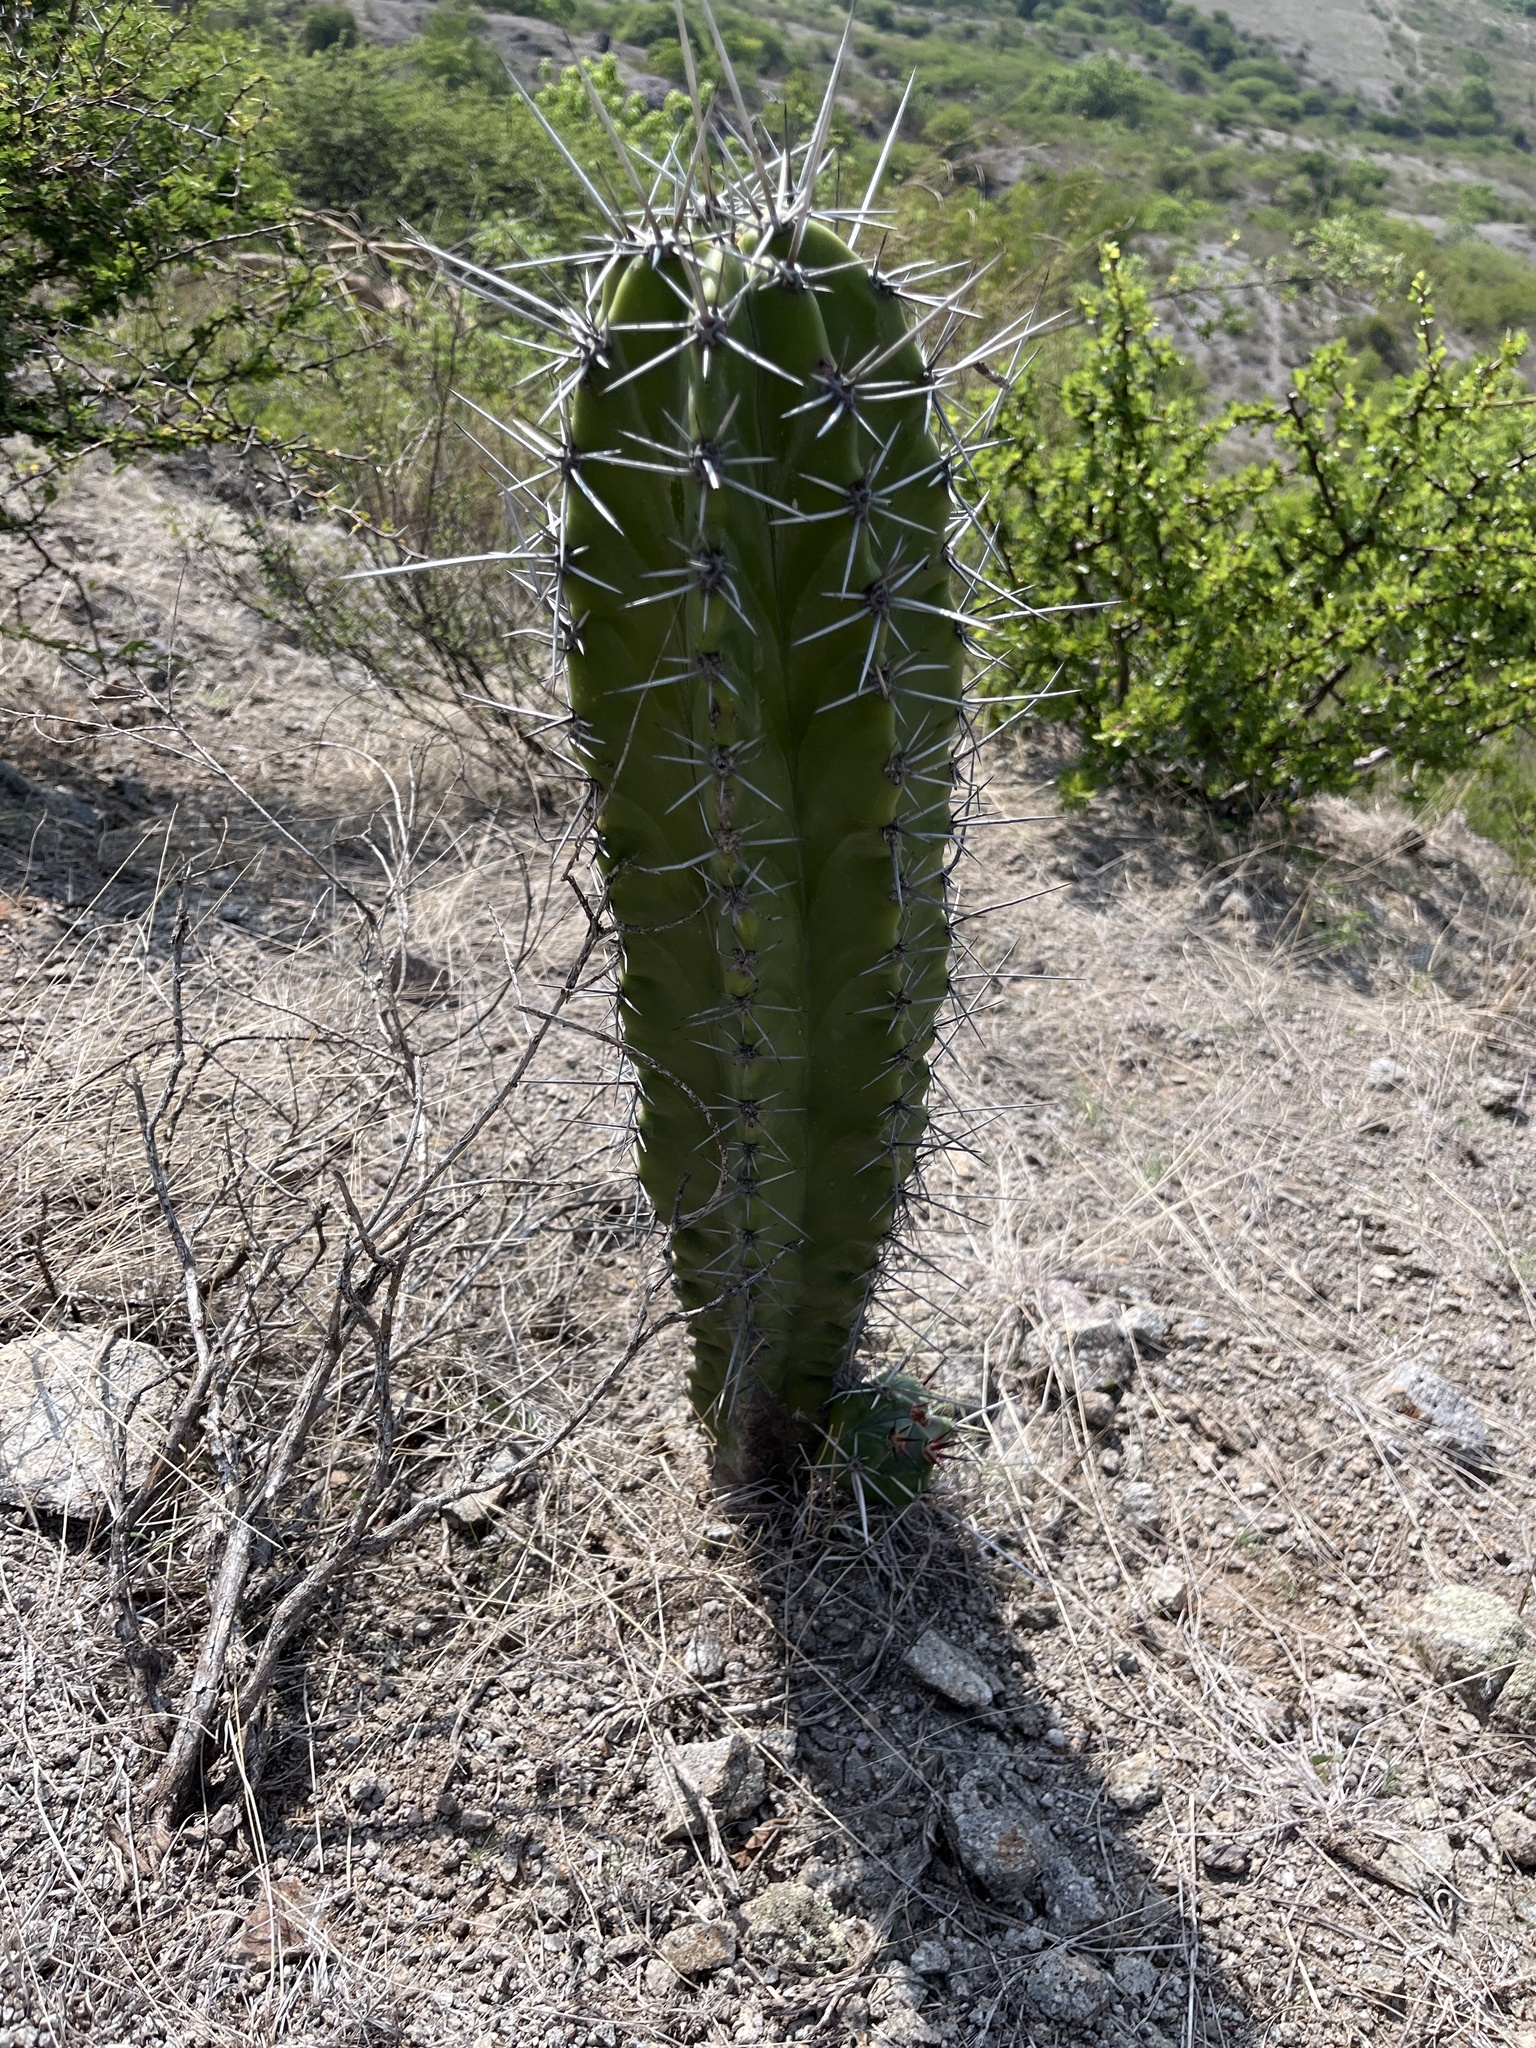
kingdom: Plantae
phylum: Tracheophyta
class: Magnoliopsida
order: Caryophyllales
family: Cactaceae
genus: Stenocereus
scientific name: Stenocereus pruinosus
